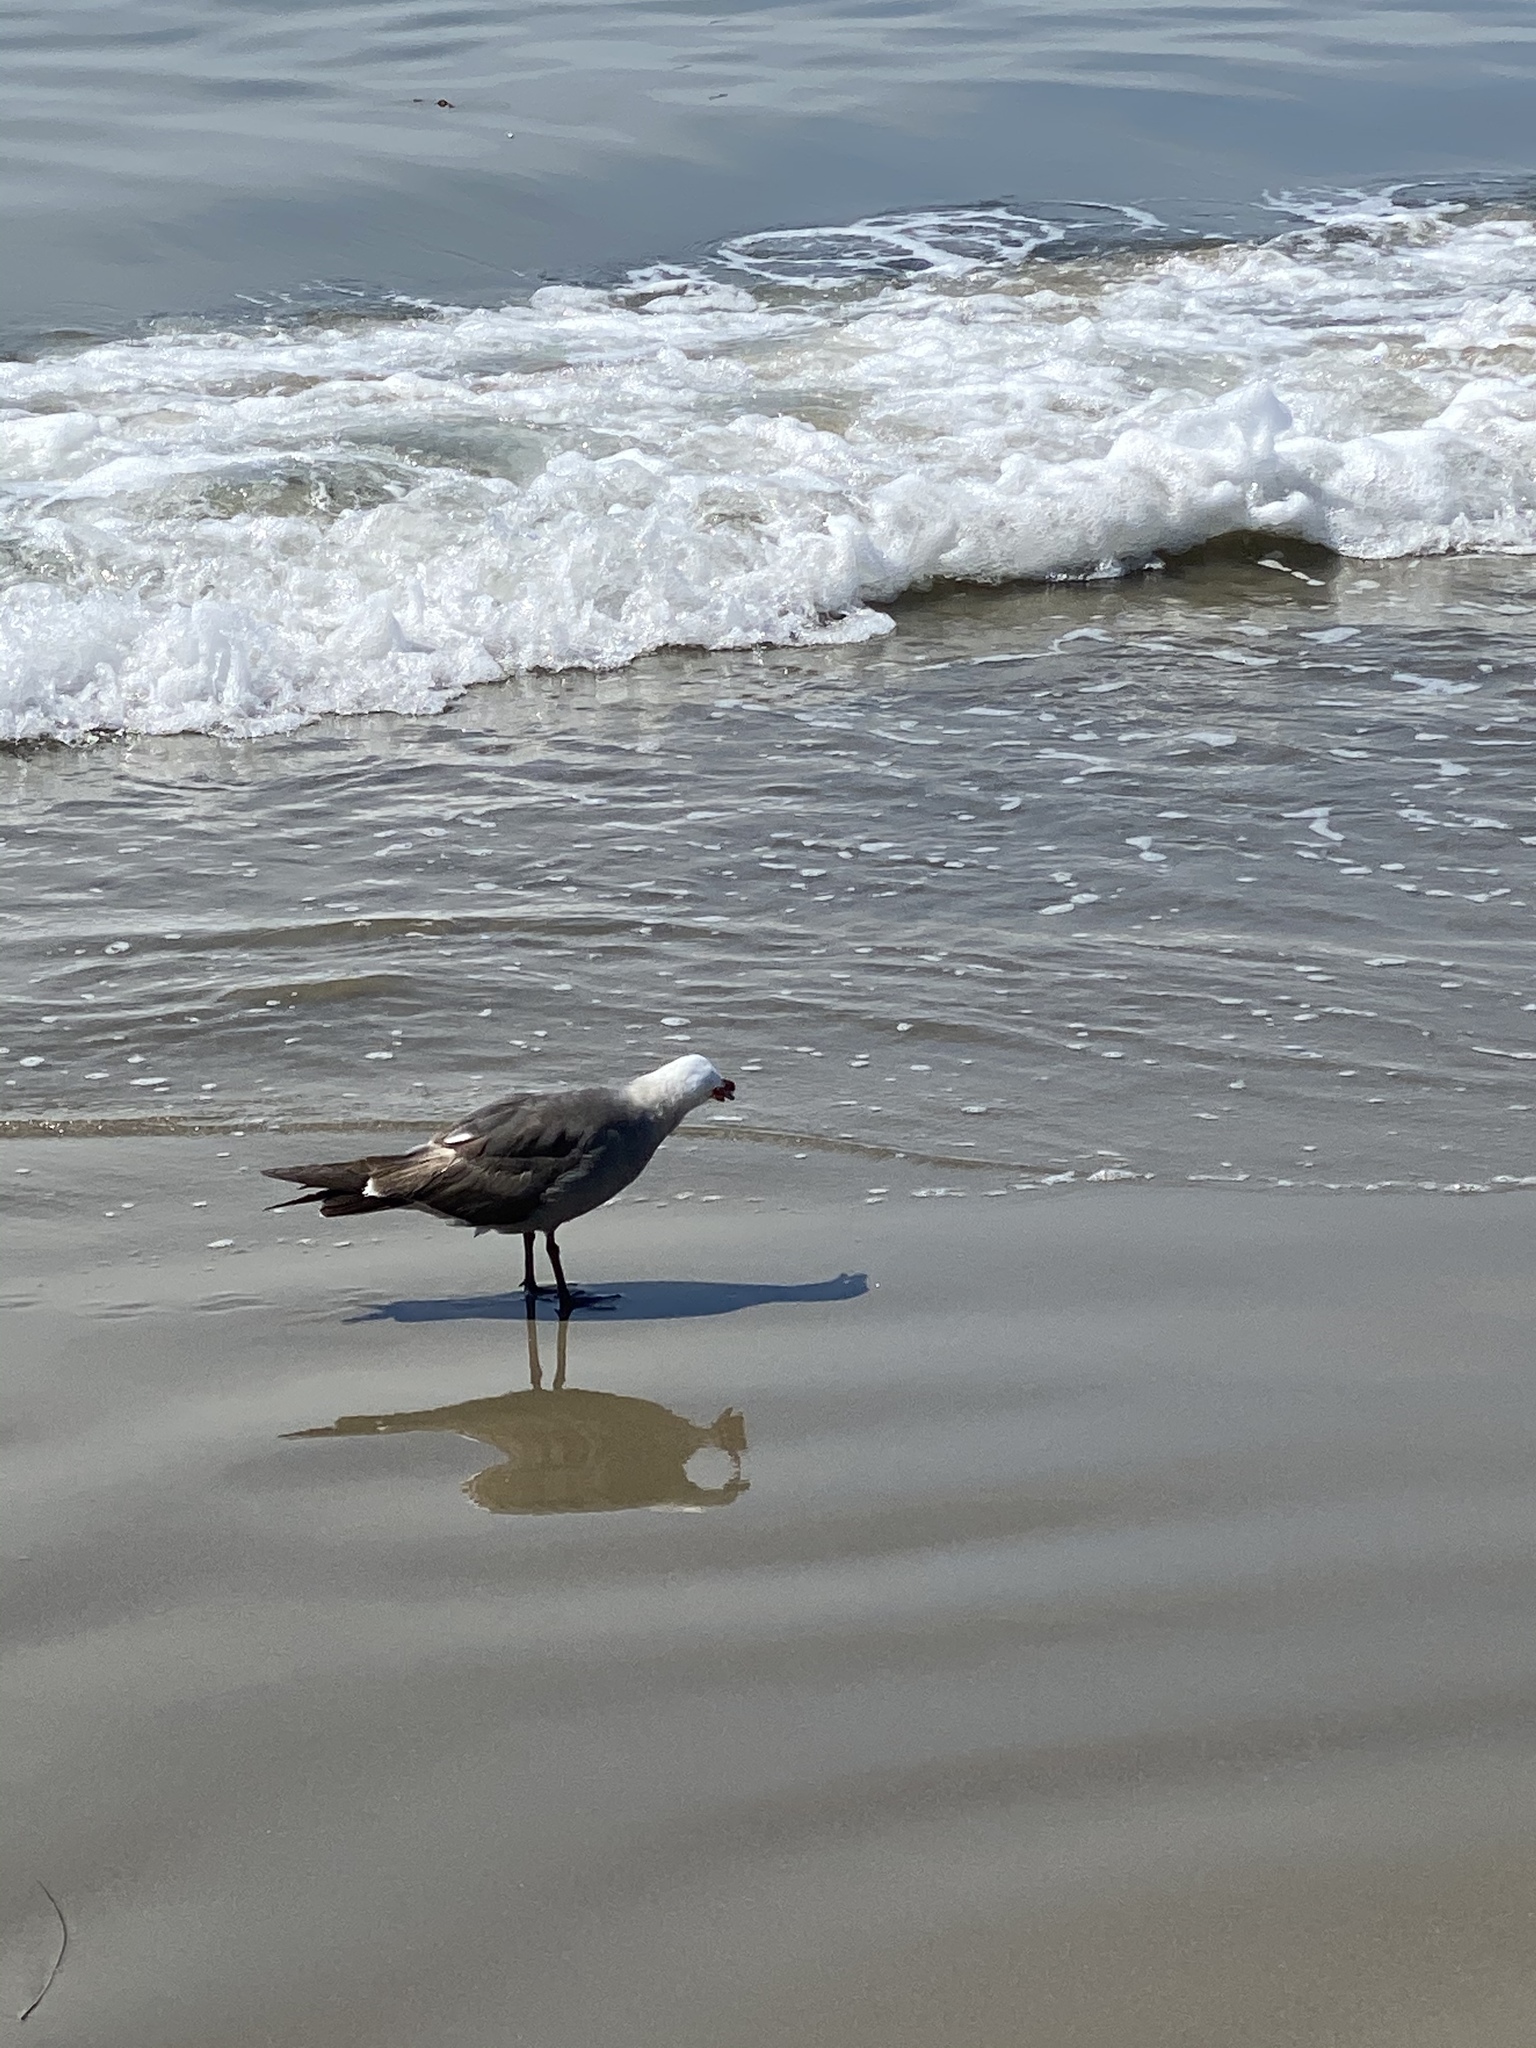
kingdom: Animalia
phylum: Chordata
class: Aves
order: Charadriiformes
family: Laridae
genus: Larus
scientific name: Larus heermanni
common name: Heermann's gull
